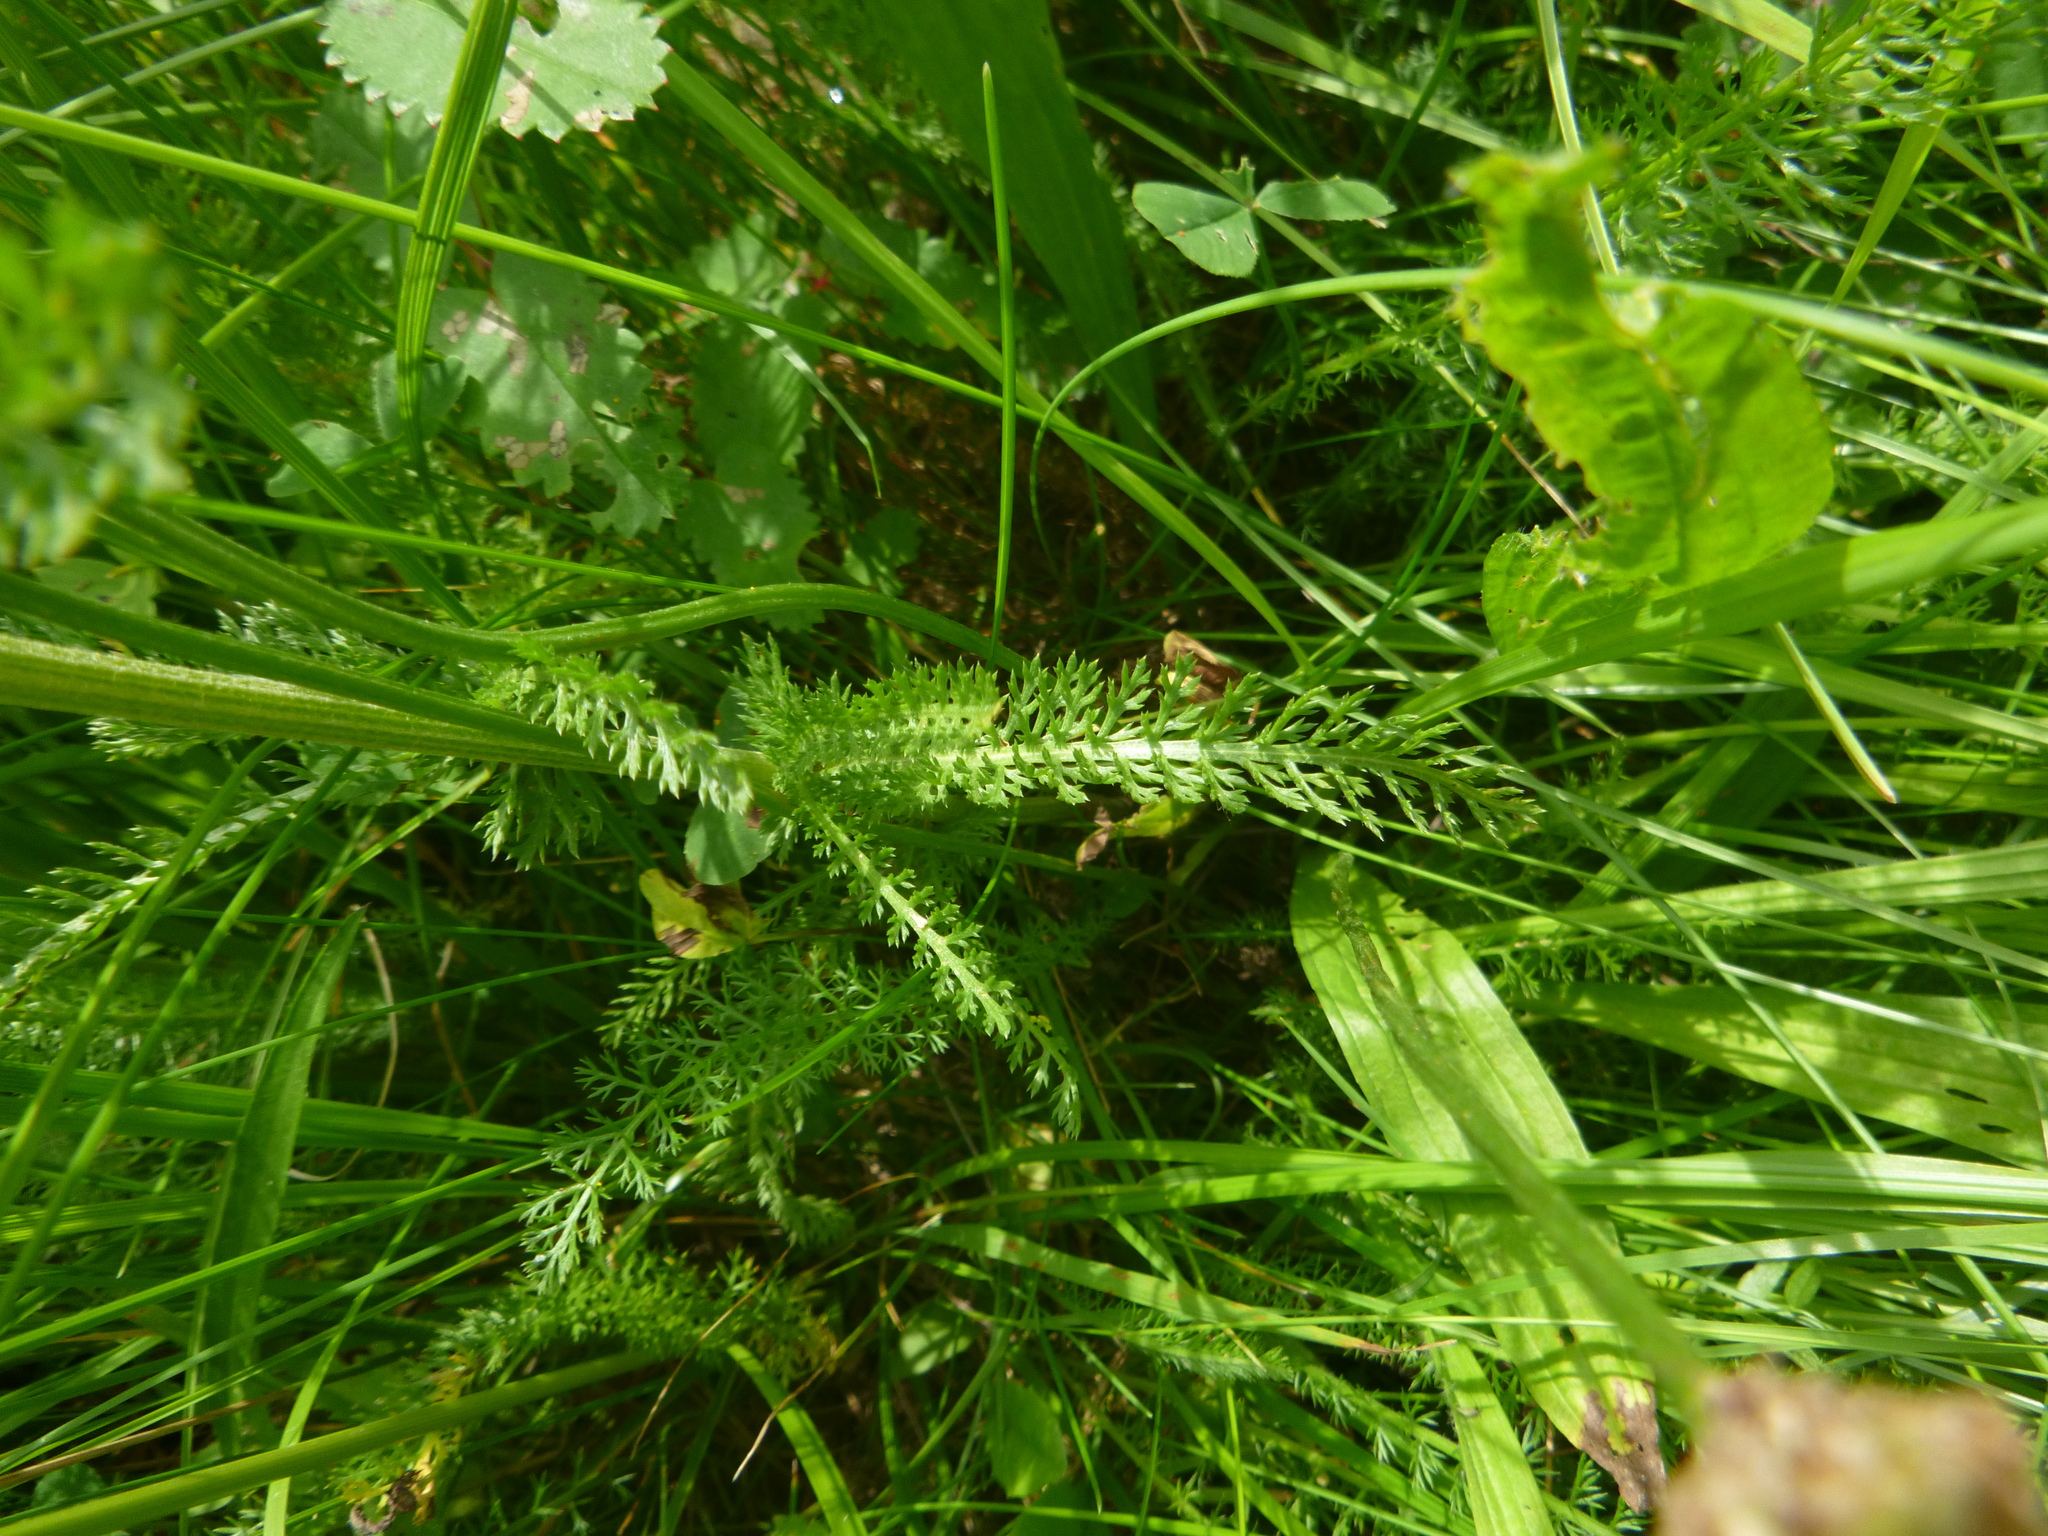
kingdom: Plantae
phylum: Tracheophyta
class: Magnoliopsida
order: Asterales
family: Asteraceae
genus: Achillea
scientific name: Achillea millefolium
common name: Yarrow
